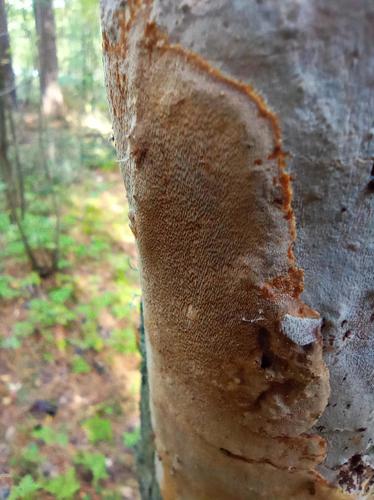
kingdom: Fungi
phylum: Basidiomycota
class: Agaricomycetes
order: Hymenochaetales
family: Hymenochaetaceae
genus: Fomitiporia
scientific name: Fomitiporia punctata
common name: Elbowpatch crust
